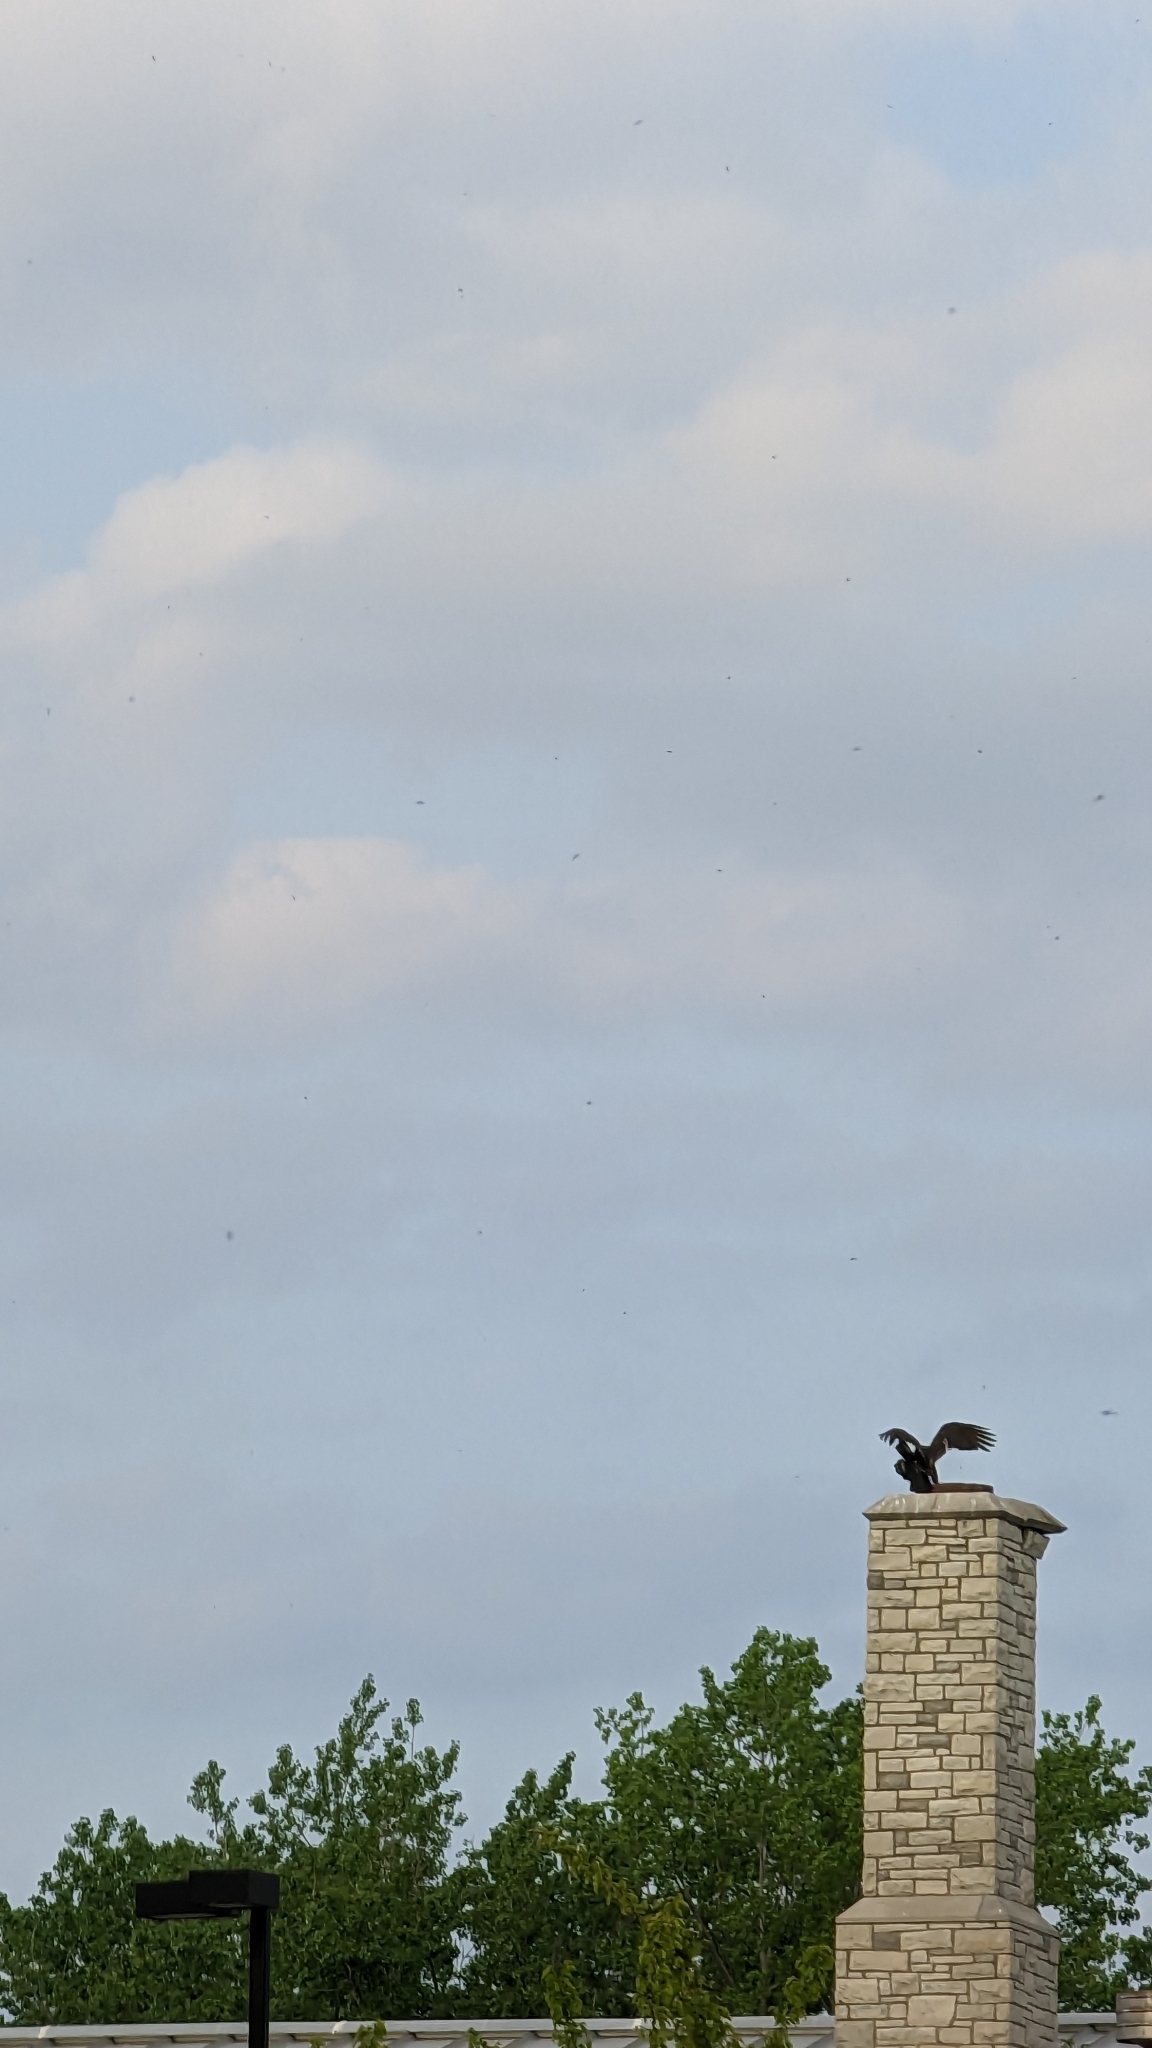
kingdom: Animalia
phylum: Chordata
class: Aves
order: Accipitriformes
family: Cathartidae
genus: Cathartes
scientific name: Cathartes aura
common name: Turkey vulture
